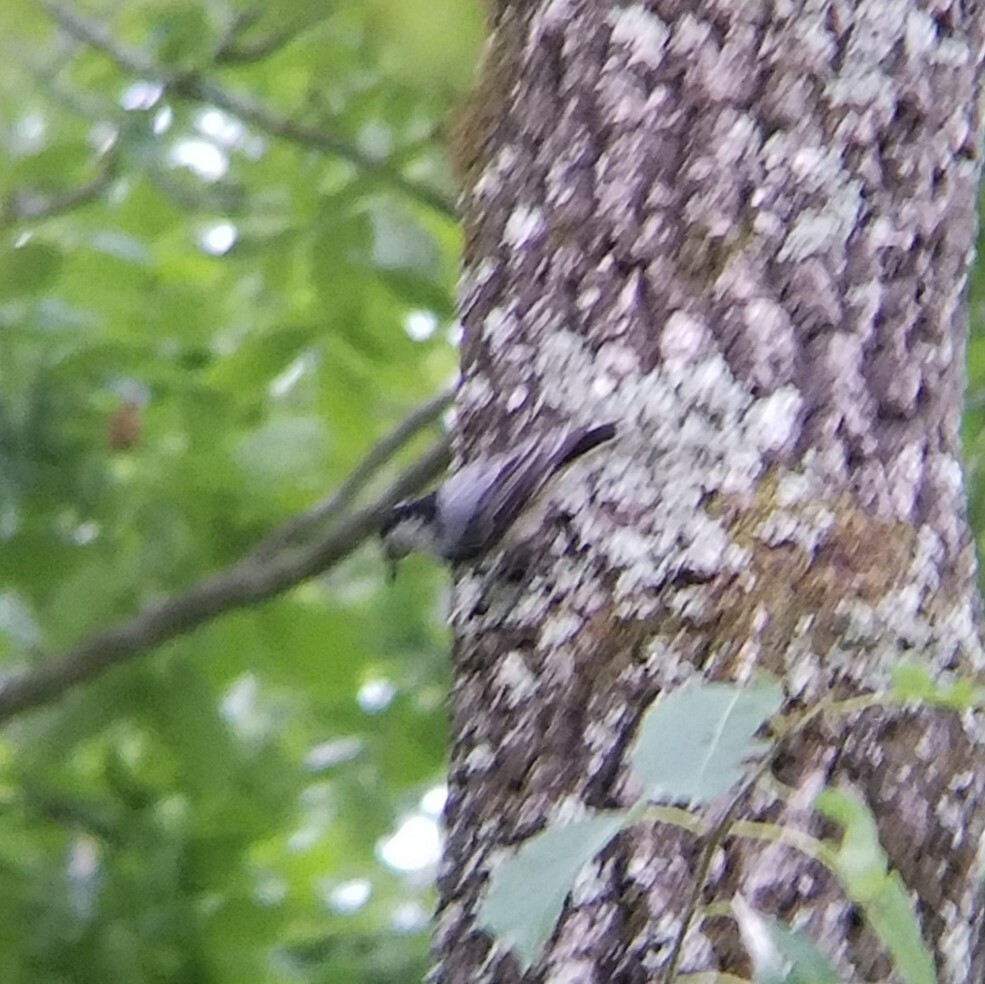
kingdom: Animalia
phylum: Chordata
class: Aves
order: Passeriformes
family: Sittidae
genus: Sitta
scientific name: Sitta carolinensis
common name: White-breasted nuthatch
